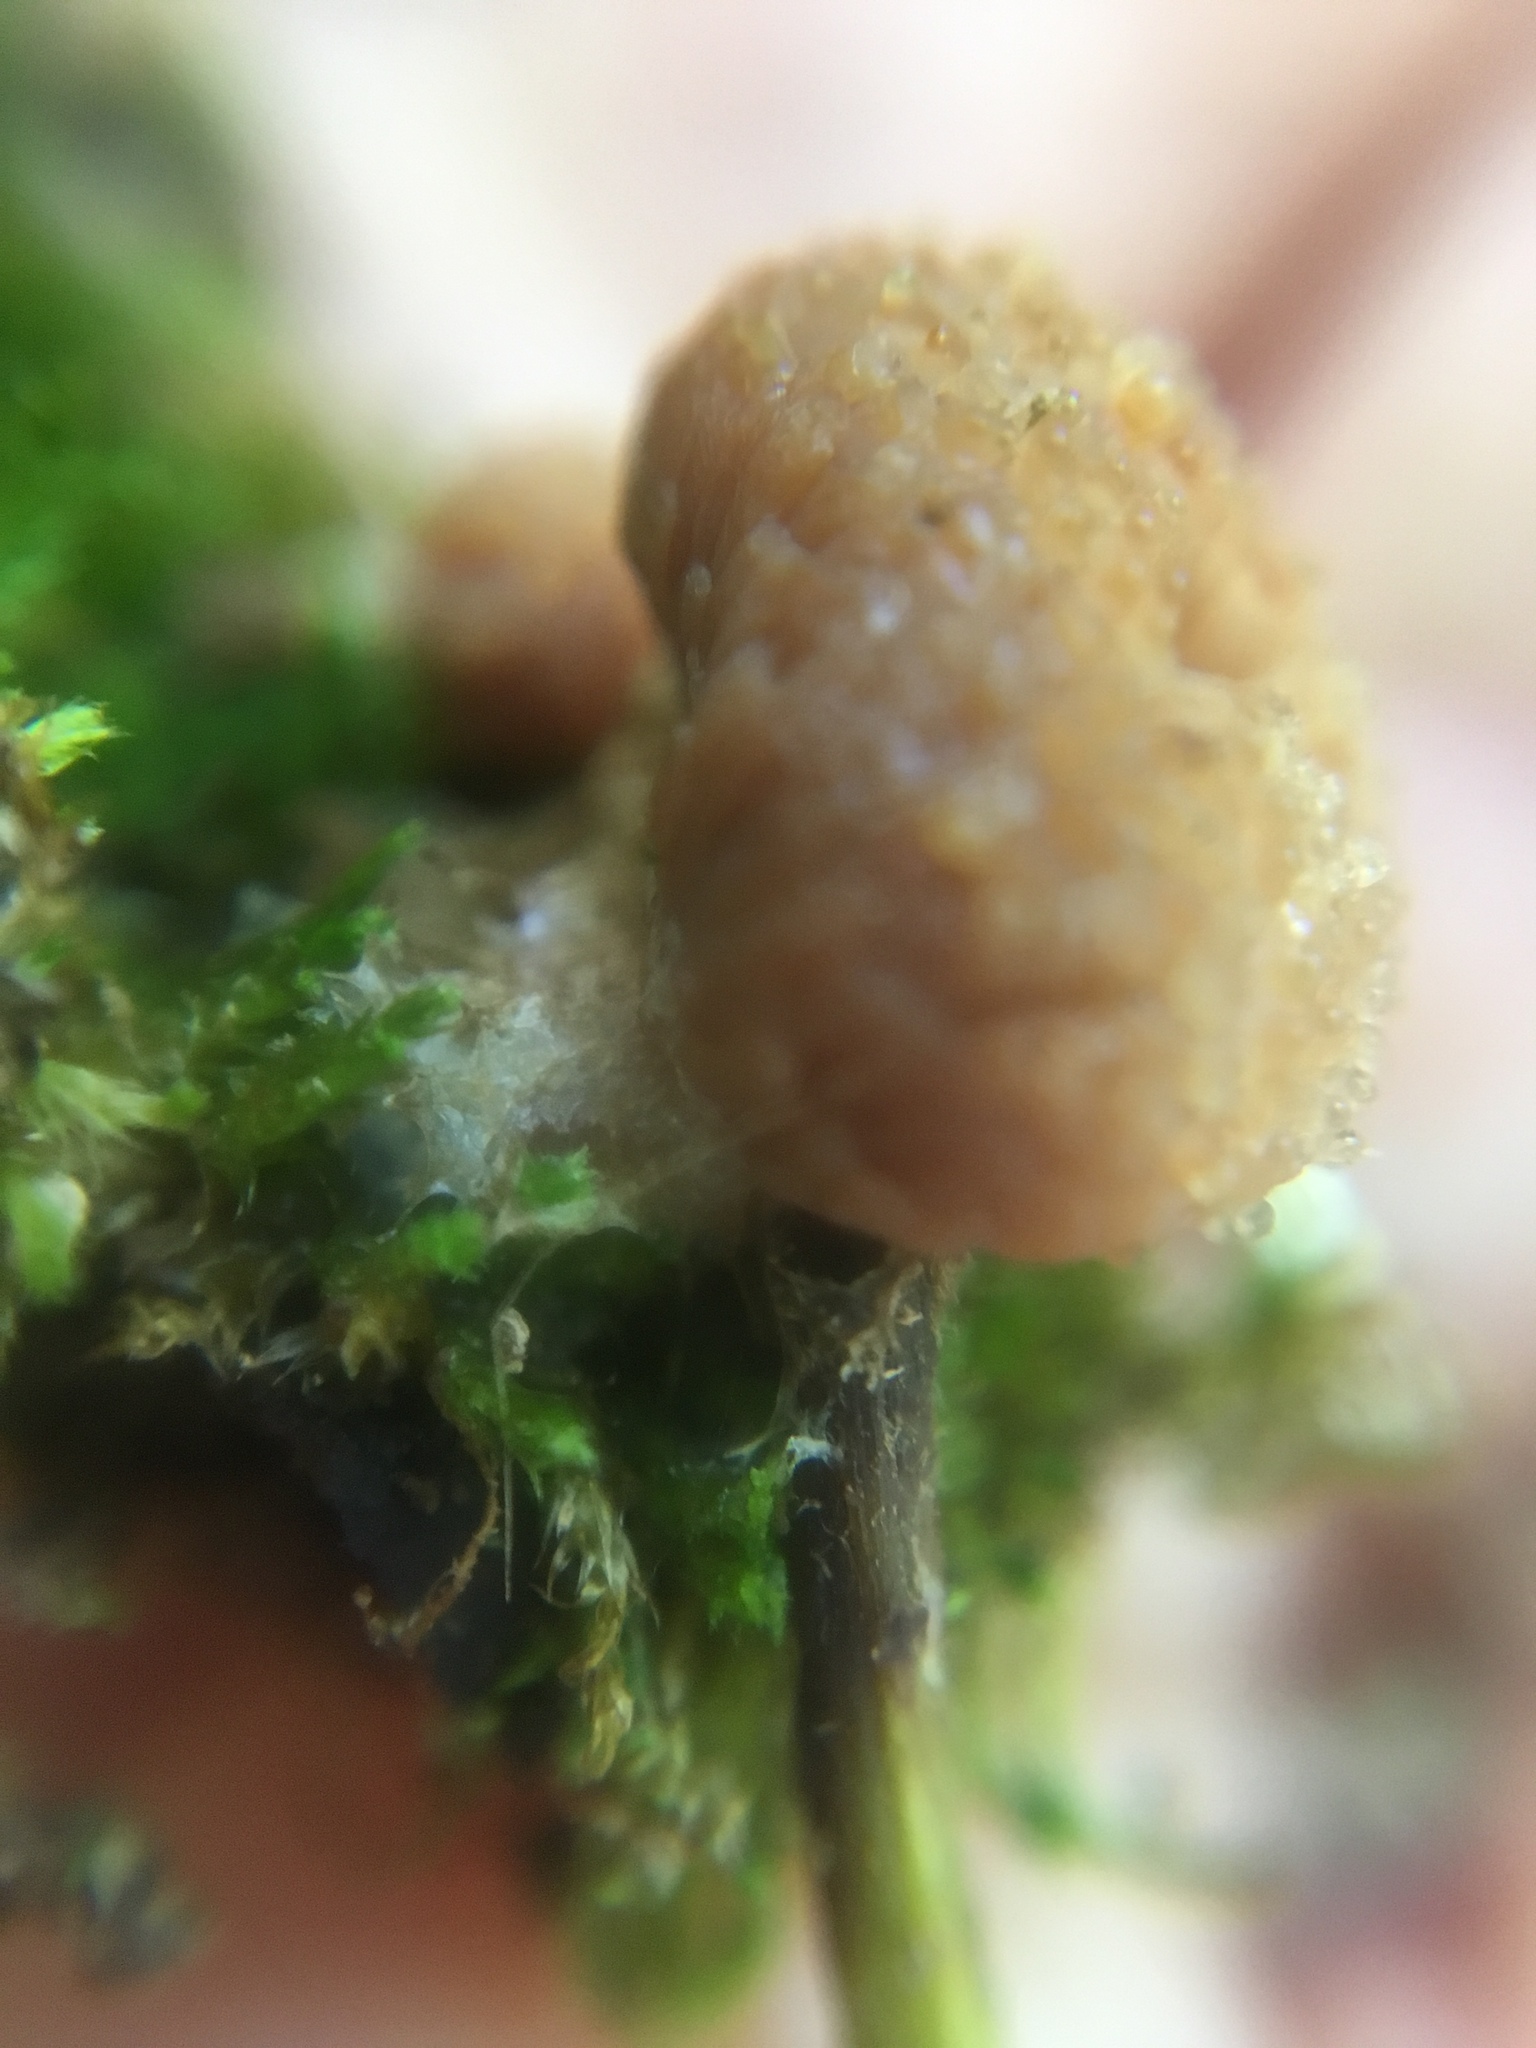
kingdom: Protozoa
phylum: Mycetozoa
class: Myxomycetes
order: Cribrariales
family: Tubiferaceae
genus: Tubifera
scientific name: Tubifera microsperma
